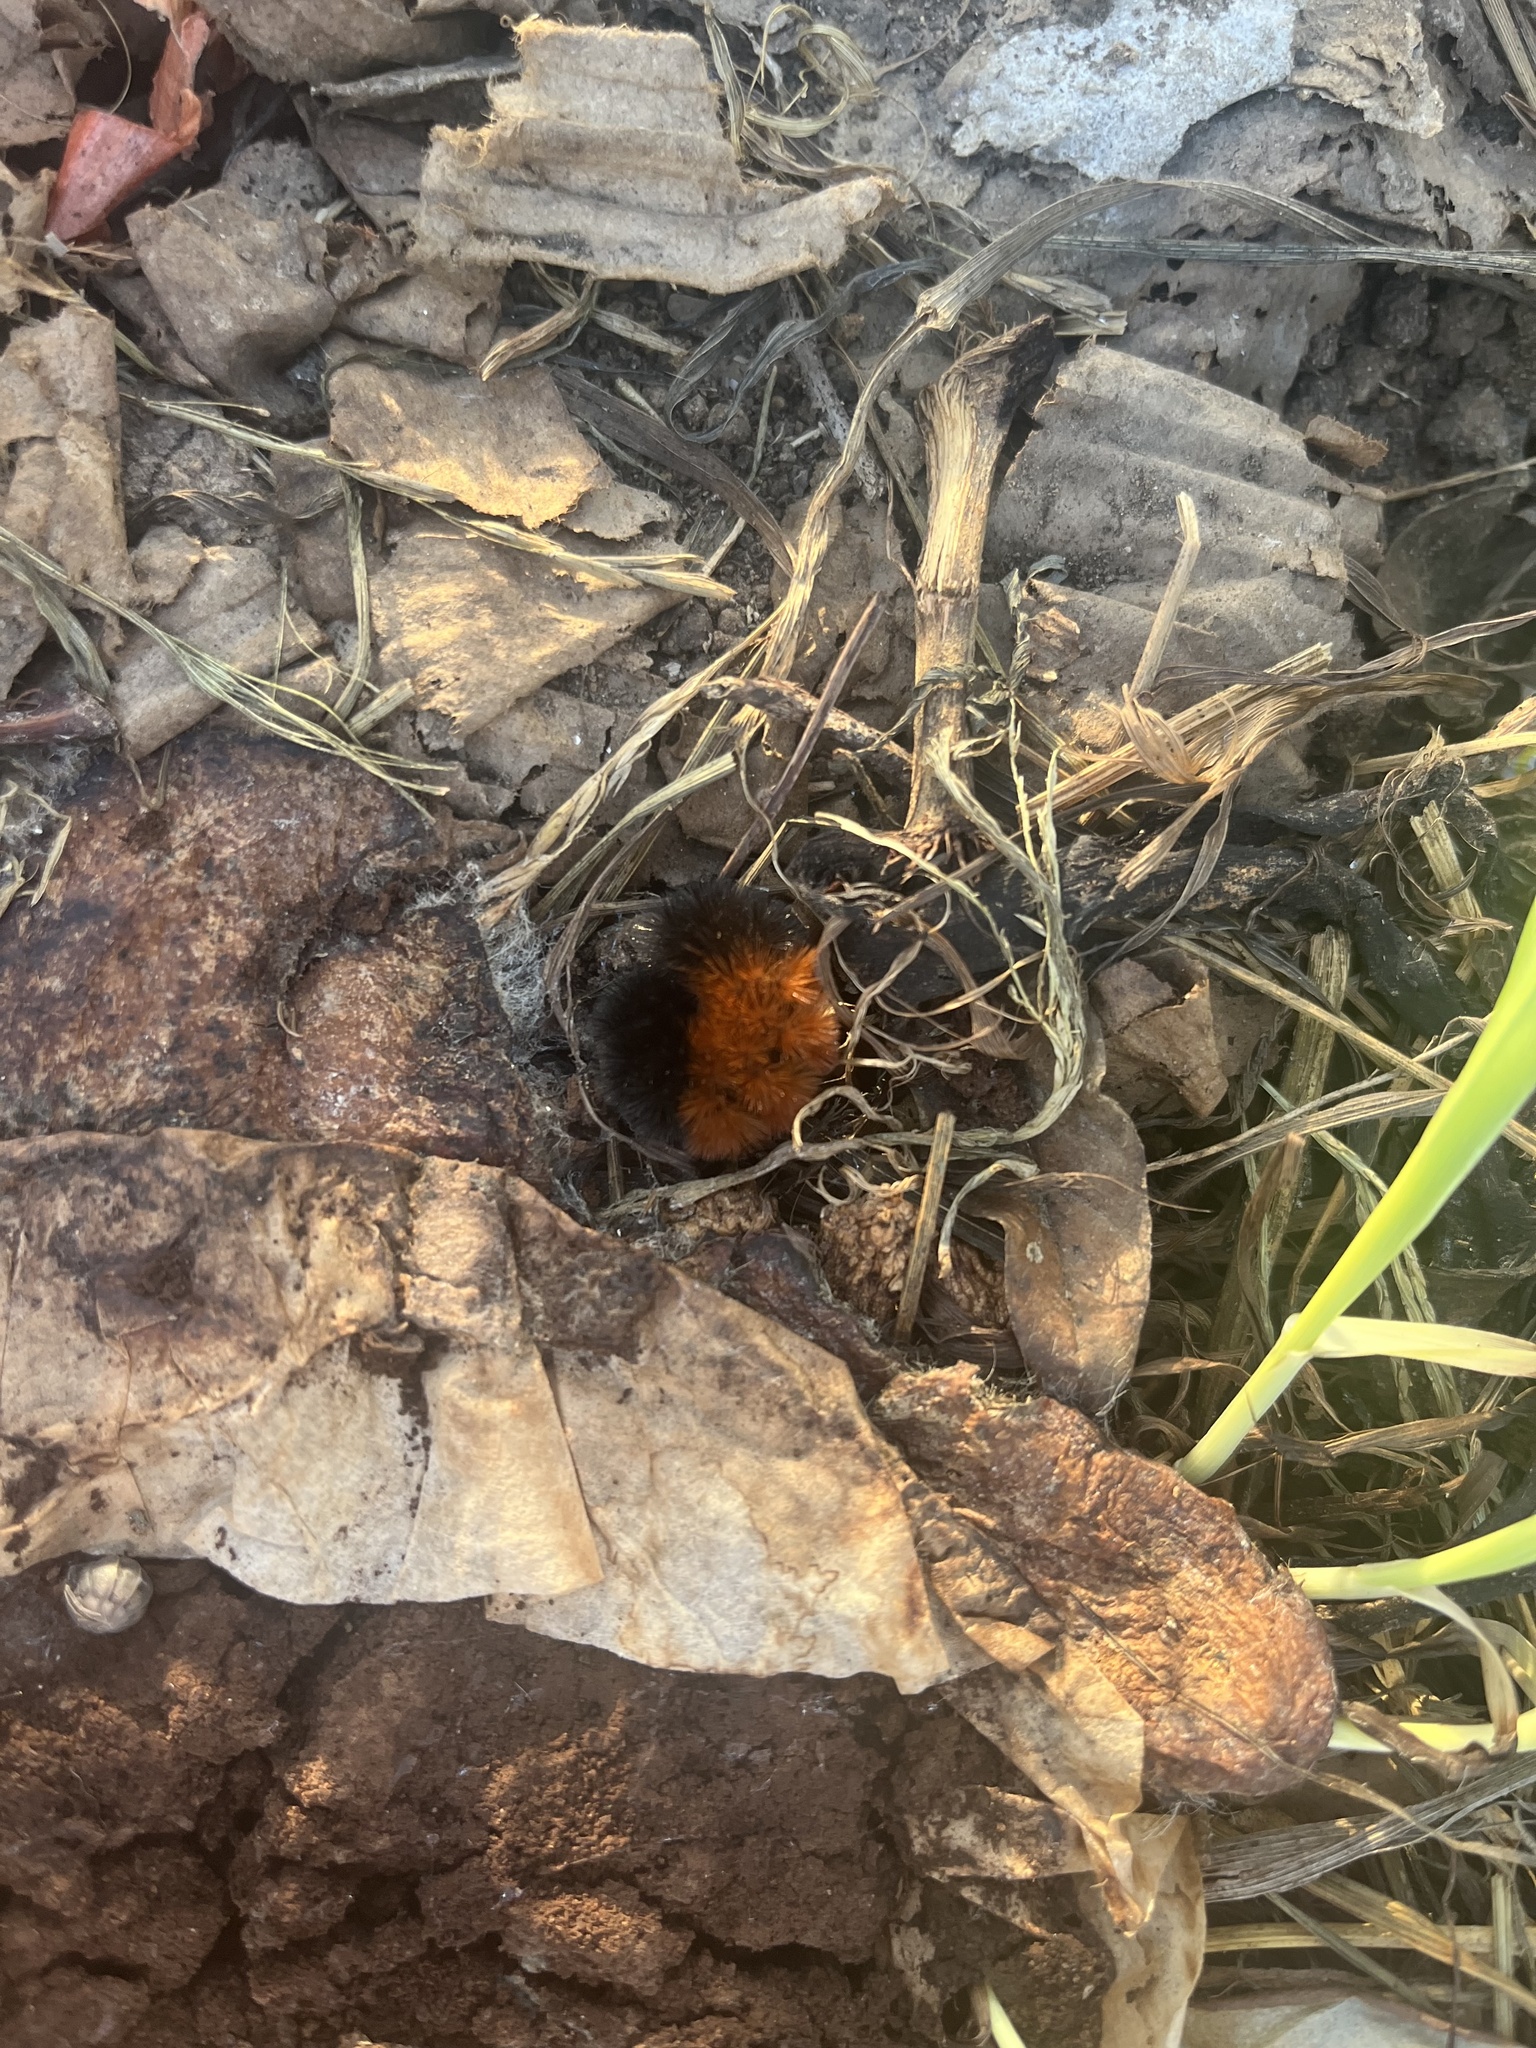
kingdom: Animalia
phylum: Arthropoda
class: Insecta
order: Lepidoptera
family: Erebidae
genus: Pyrrharctia
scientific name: Pyrrharctia isabella
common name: Isabella tiger moth
